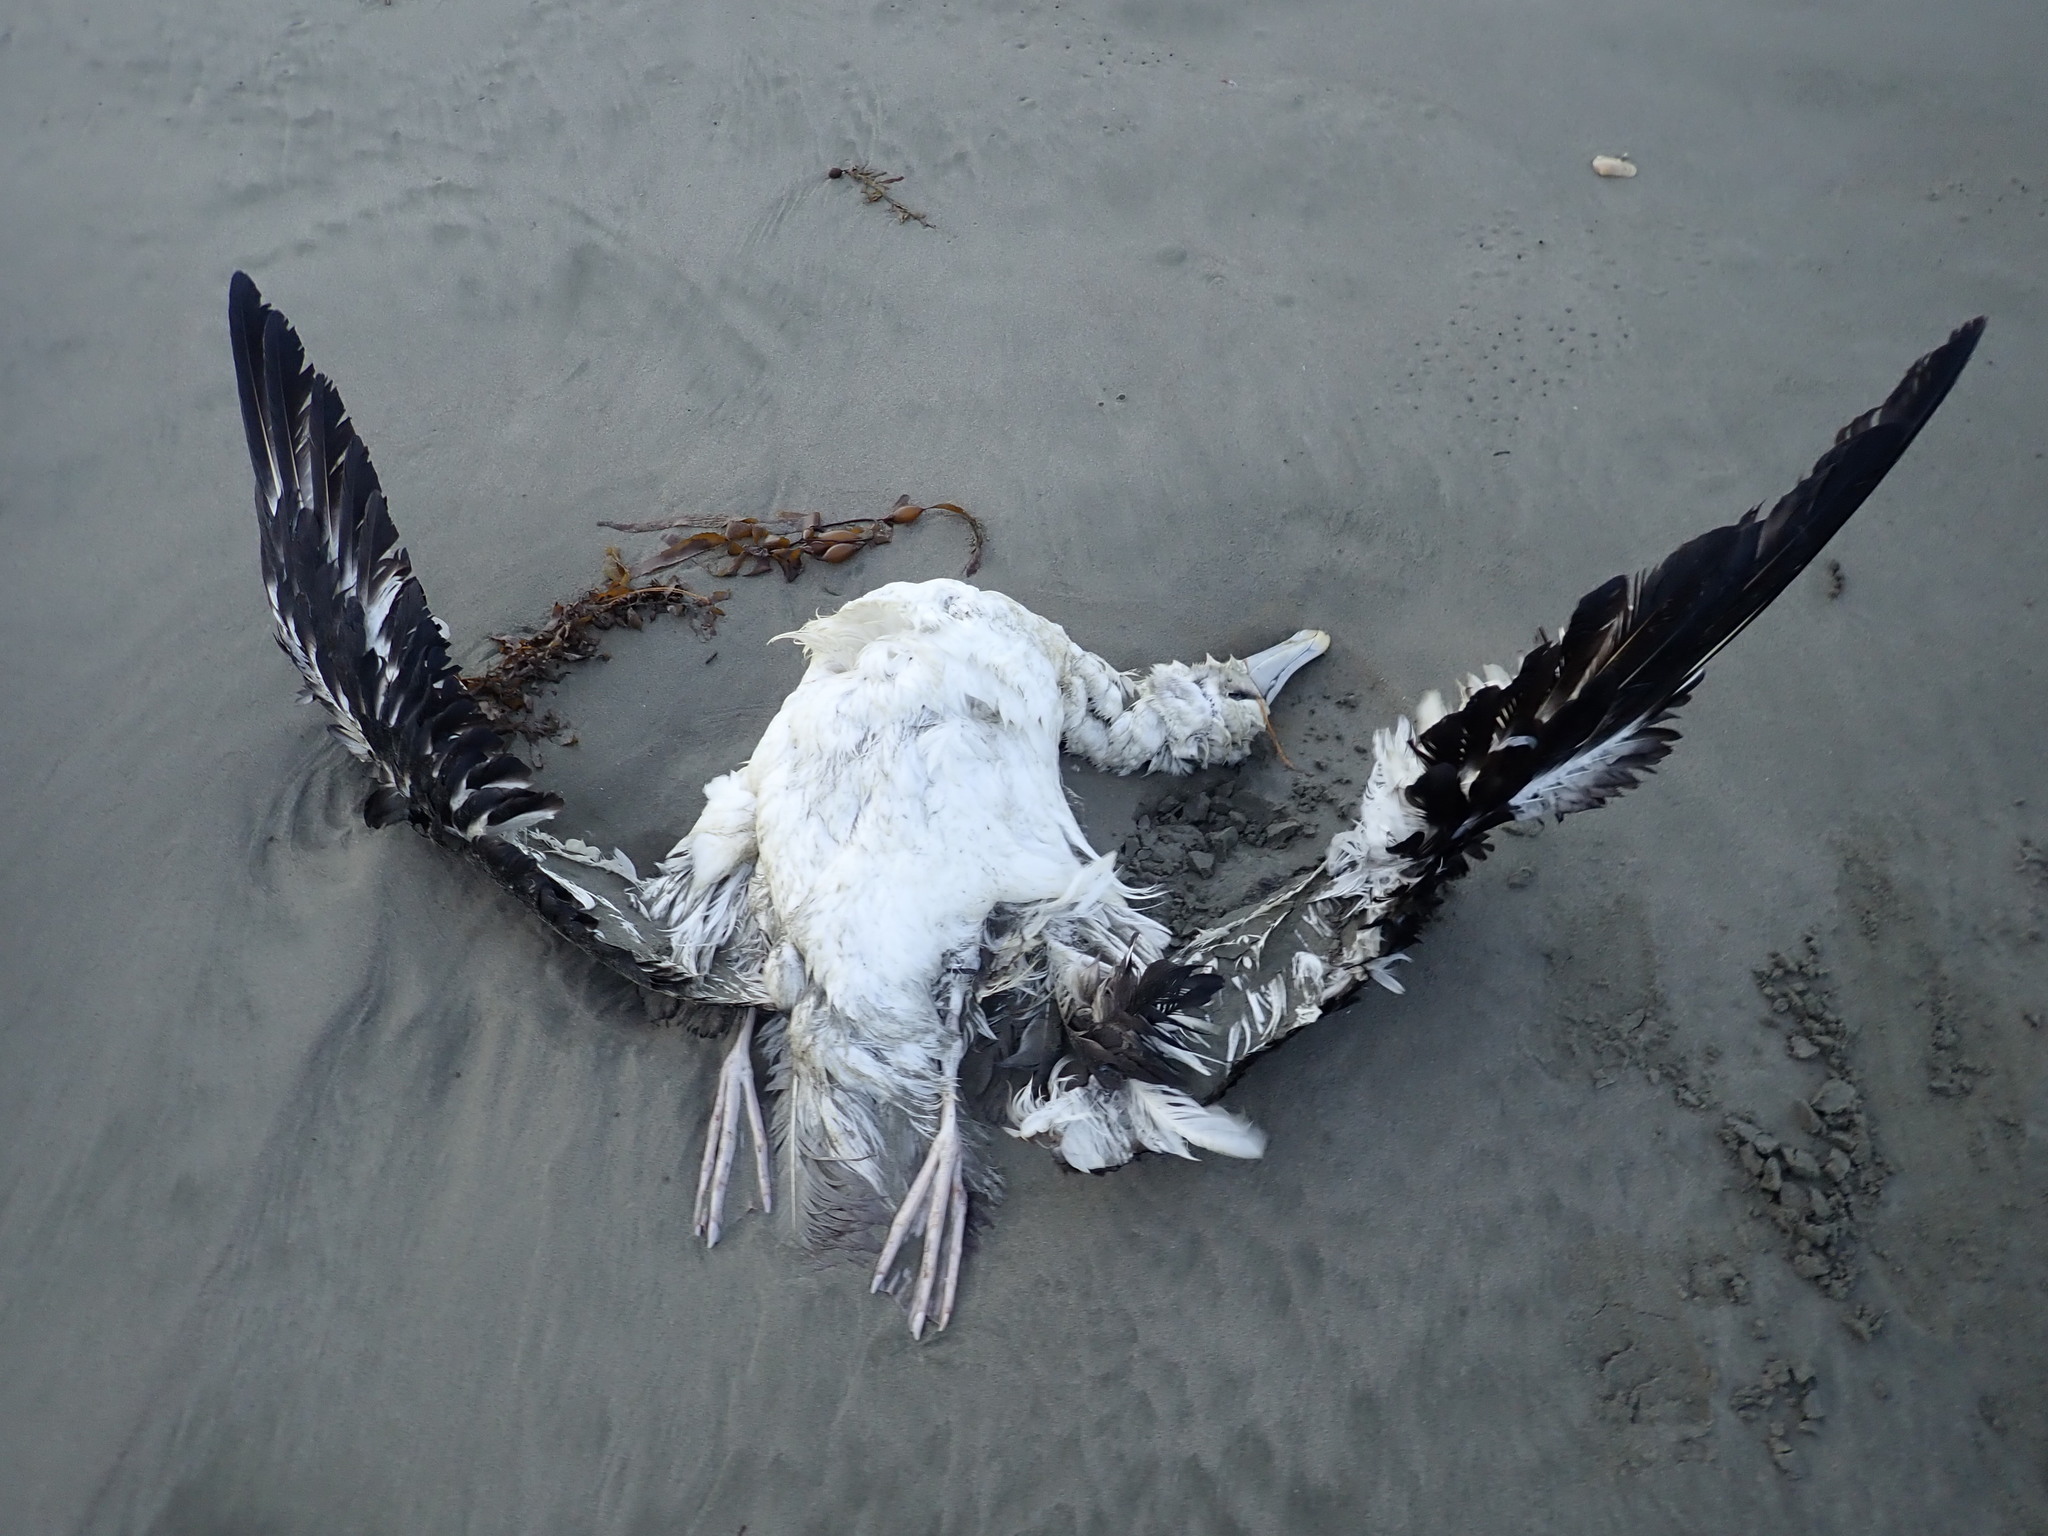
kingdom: Animalia
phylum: Chordata
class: Aves
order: Procellariiformes
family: Diomedeidae
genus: Thalassarche
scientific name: Thalassarche cauta
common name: Shy albatross
